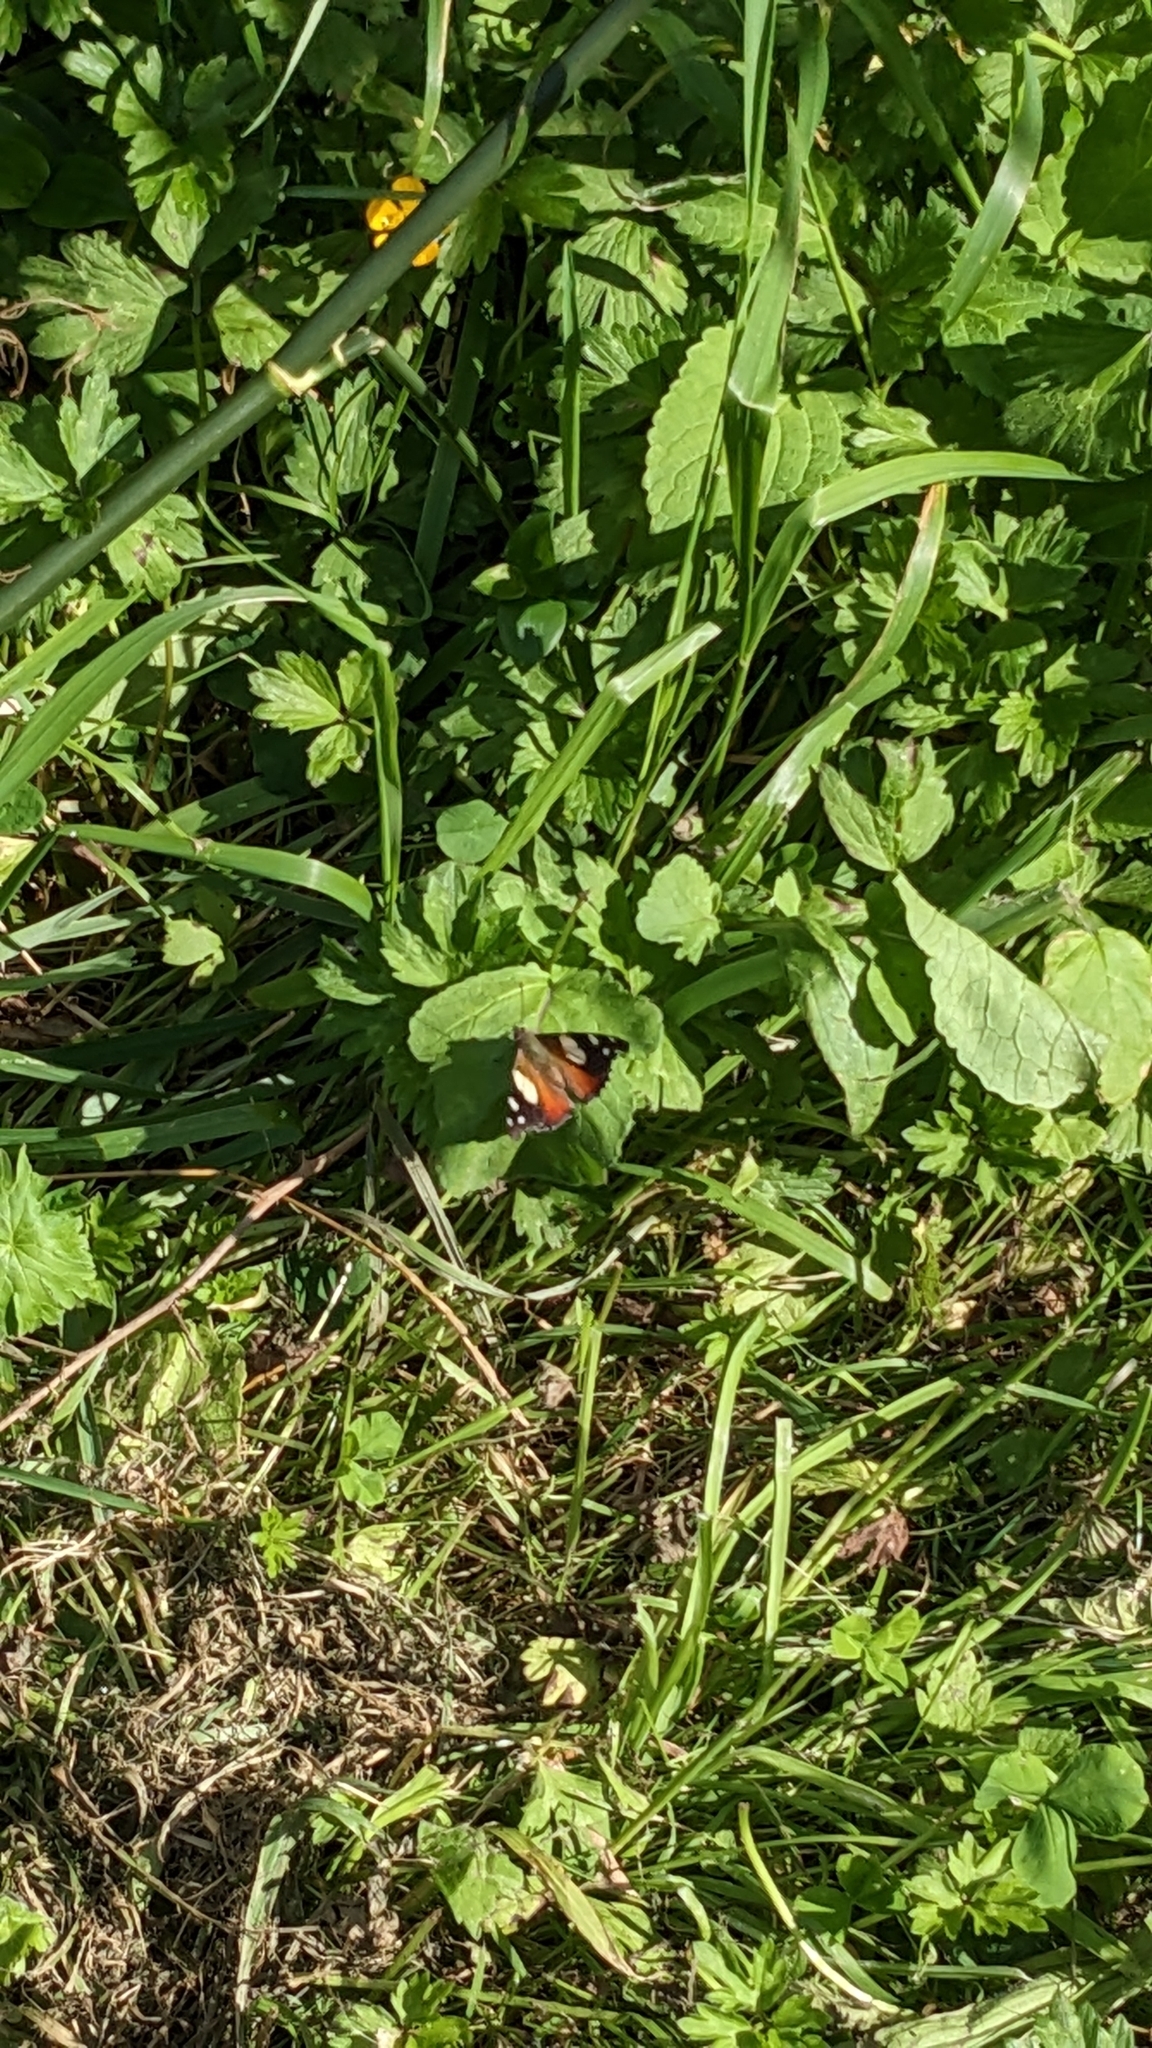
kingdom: Animalia
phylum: Arthropoda
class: Insecta
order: Lepidoptera
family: Nymphalidae
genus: Vanessa
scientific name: Vanessa itea
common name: Yellow admiral
